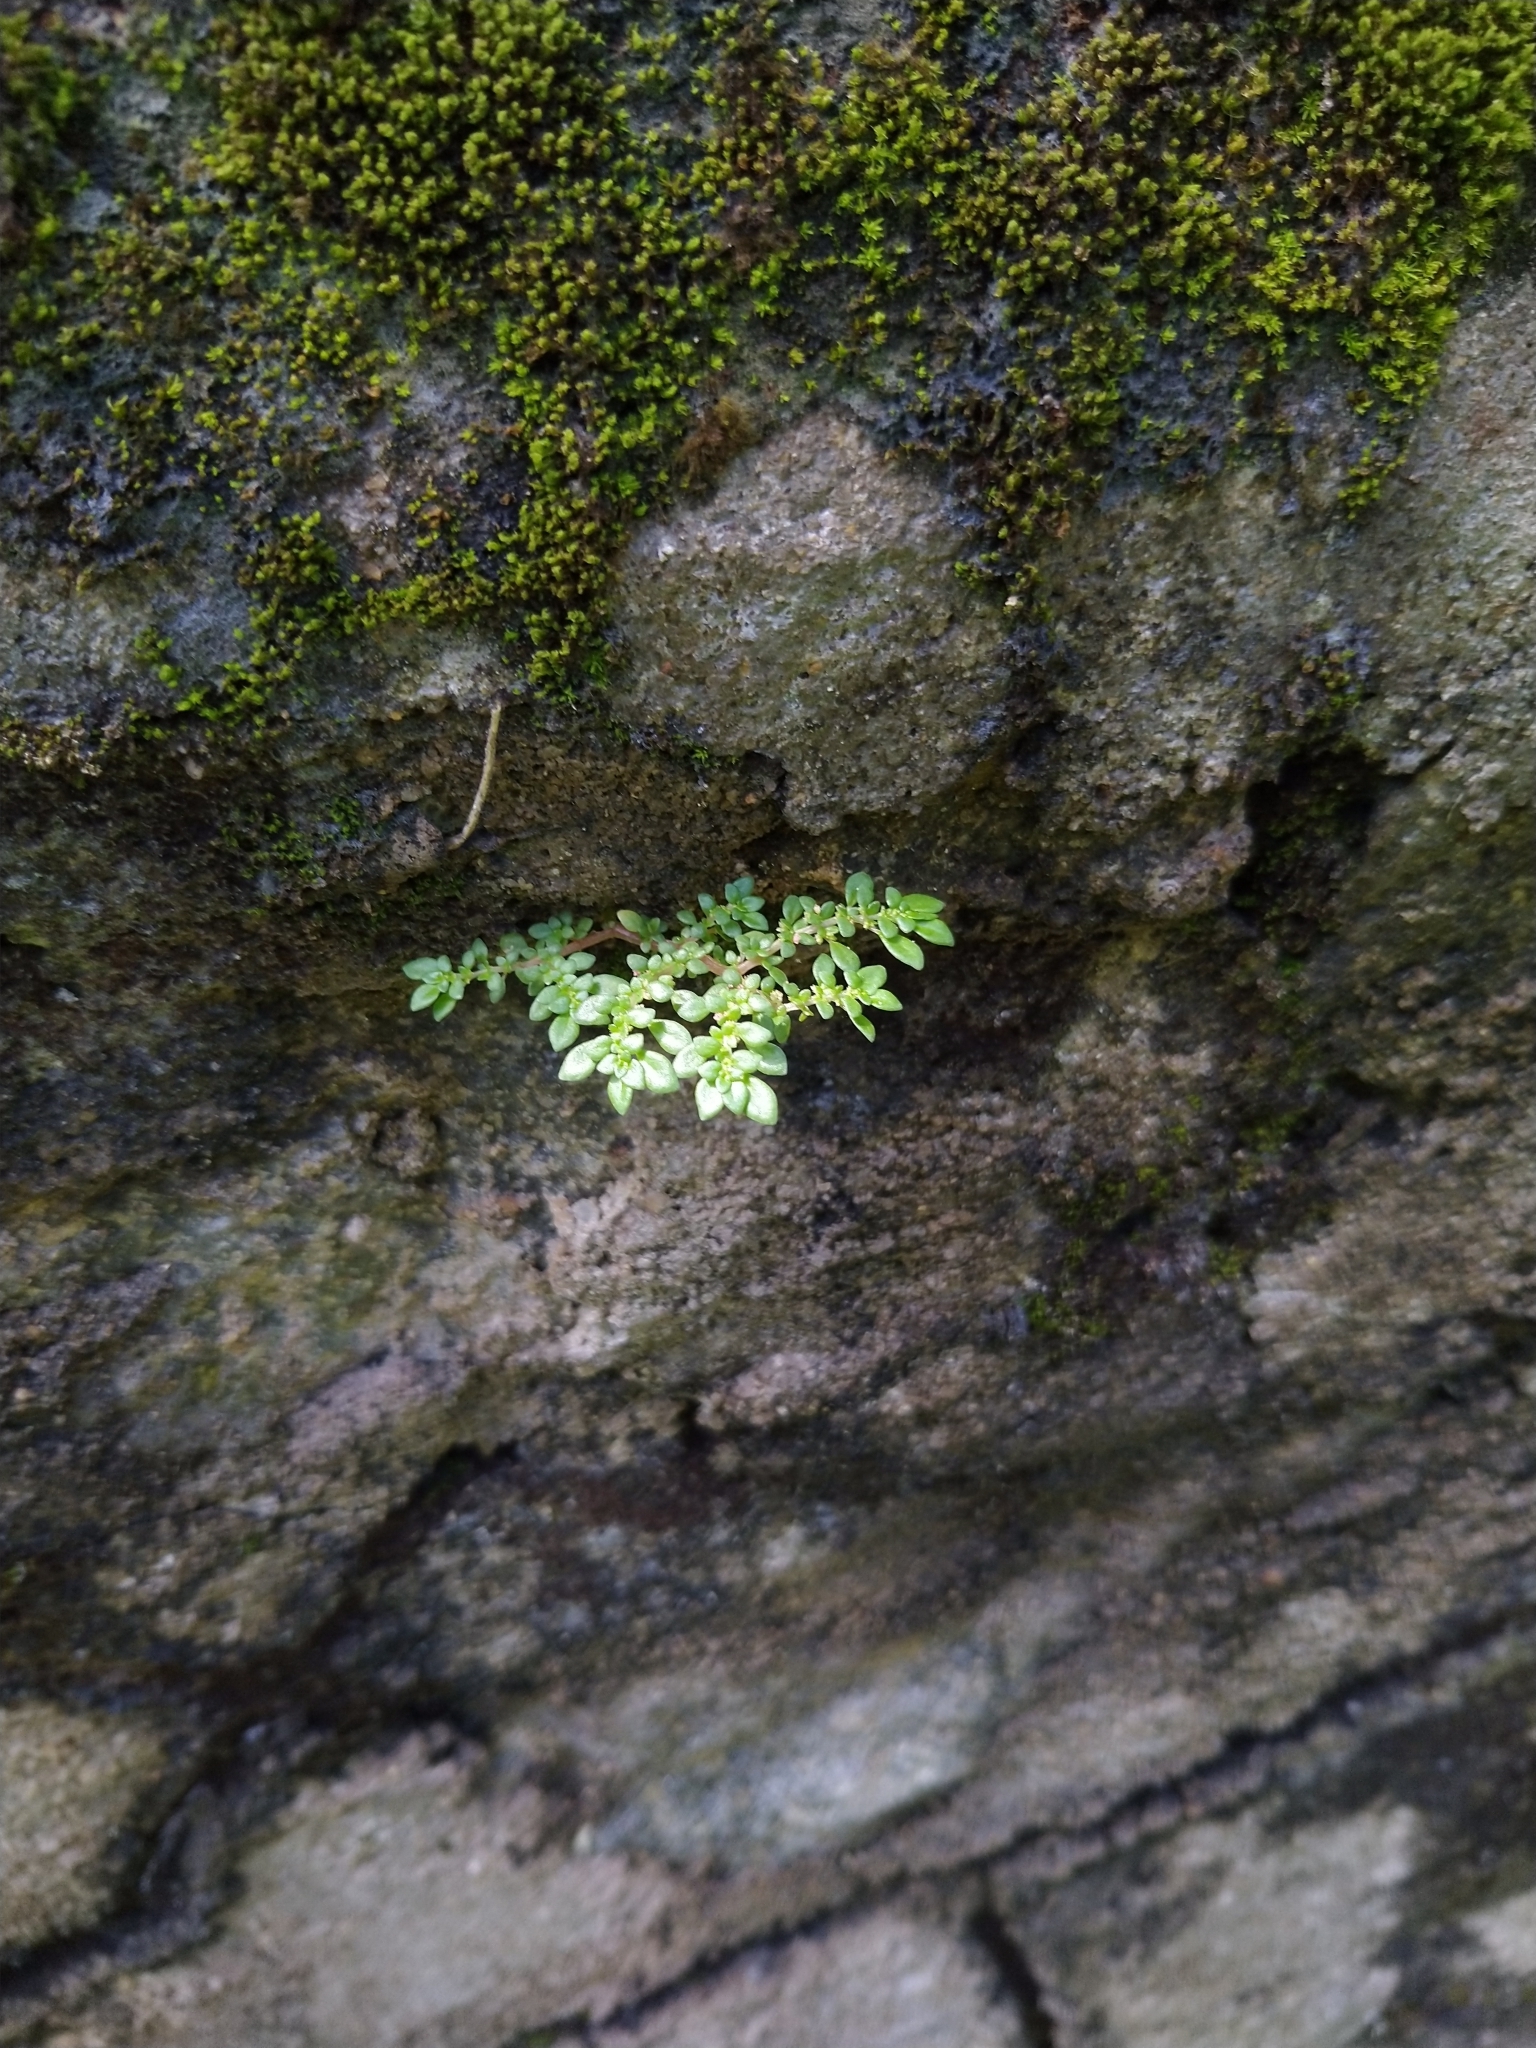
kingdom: Plantae
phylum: Tracheophyta
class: Magnoliopsida
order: Rosales
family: Urticaceae
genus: Pilea
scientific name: Pilea microphylla
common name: Artillery-plant
